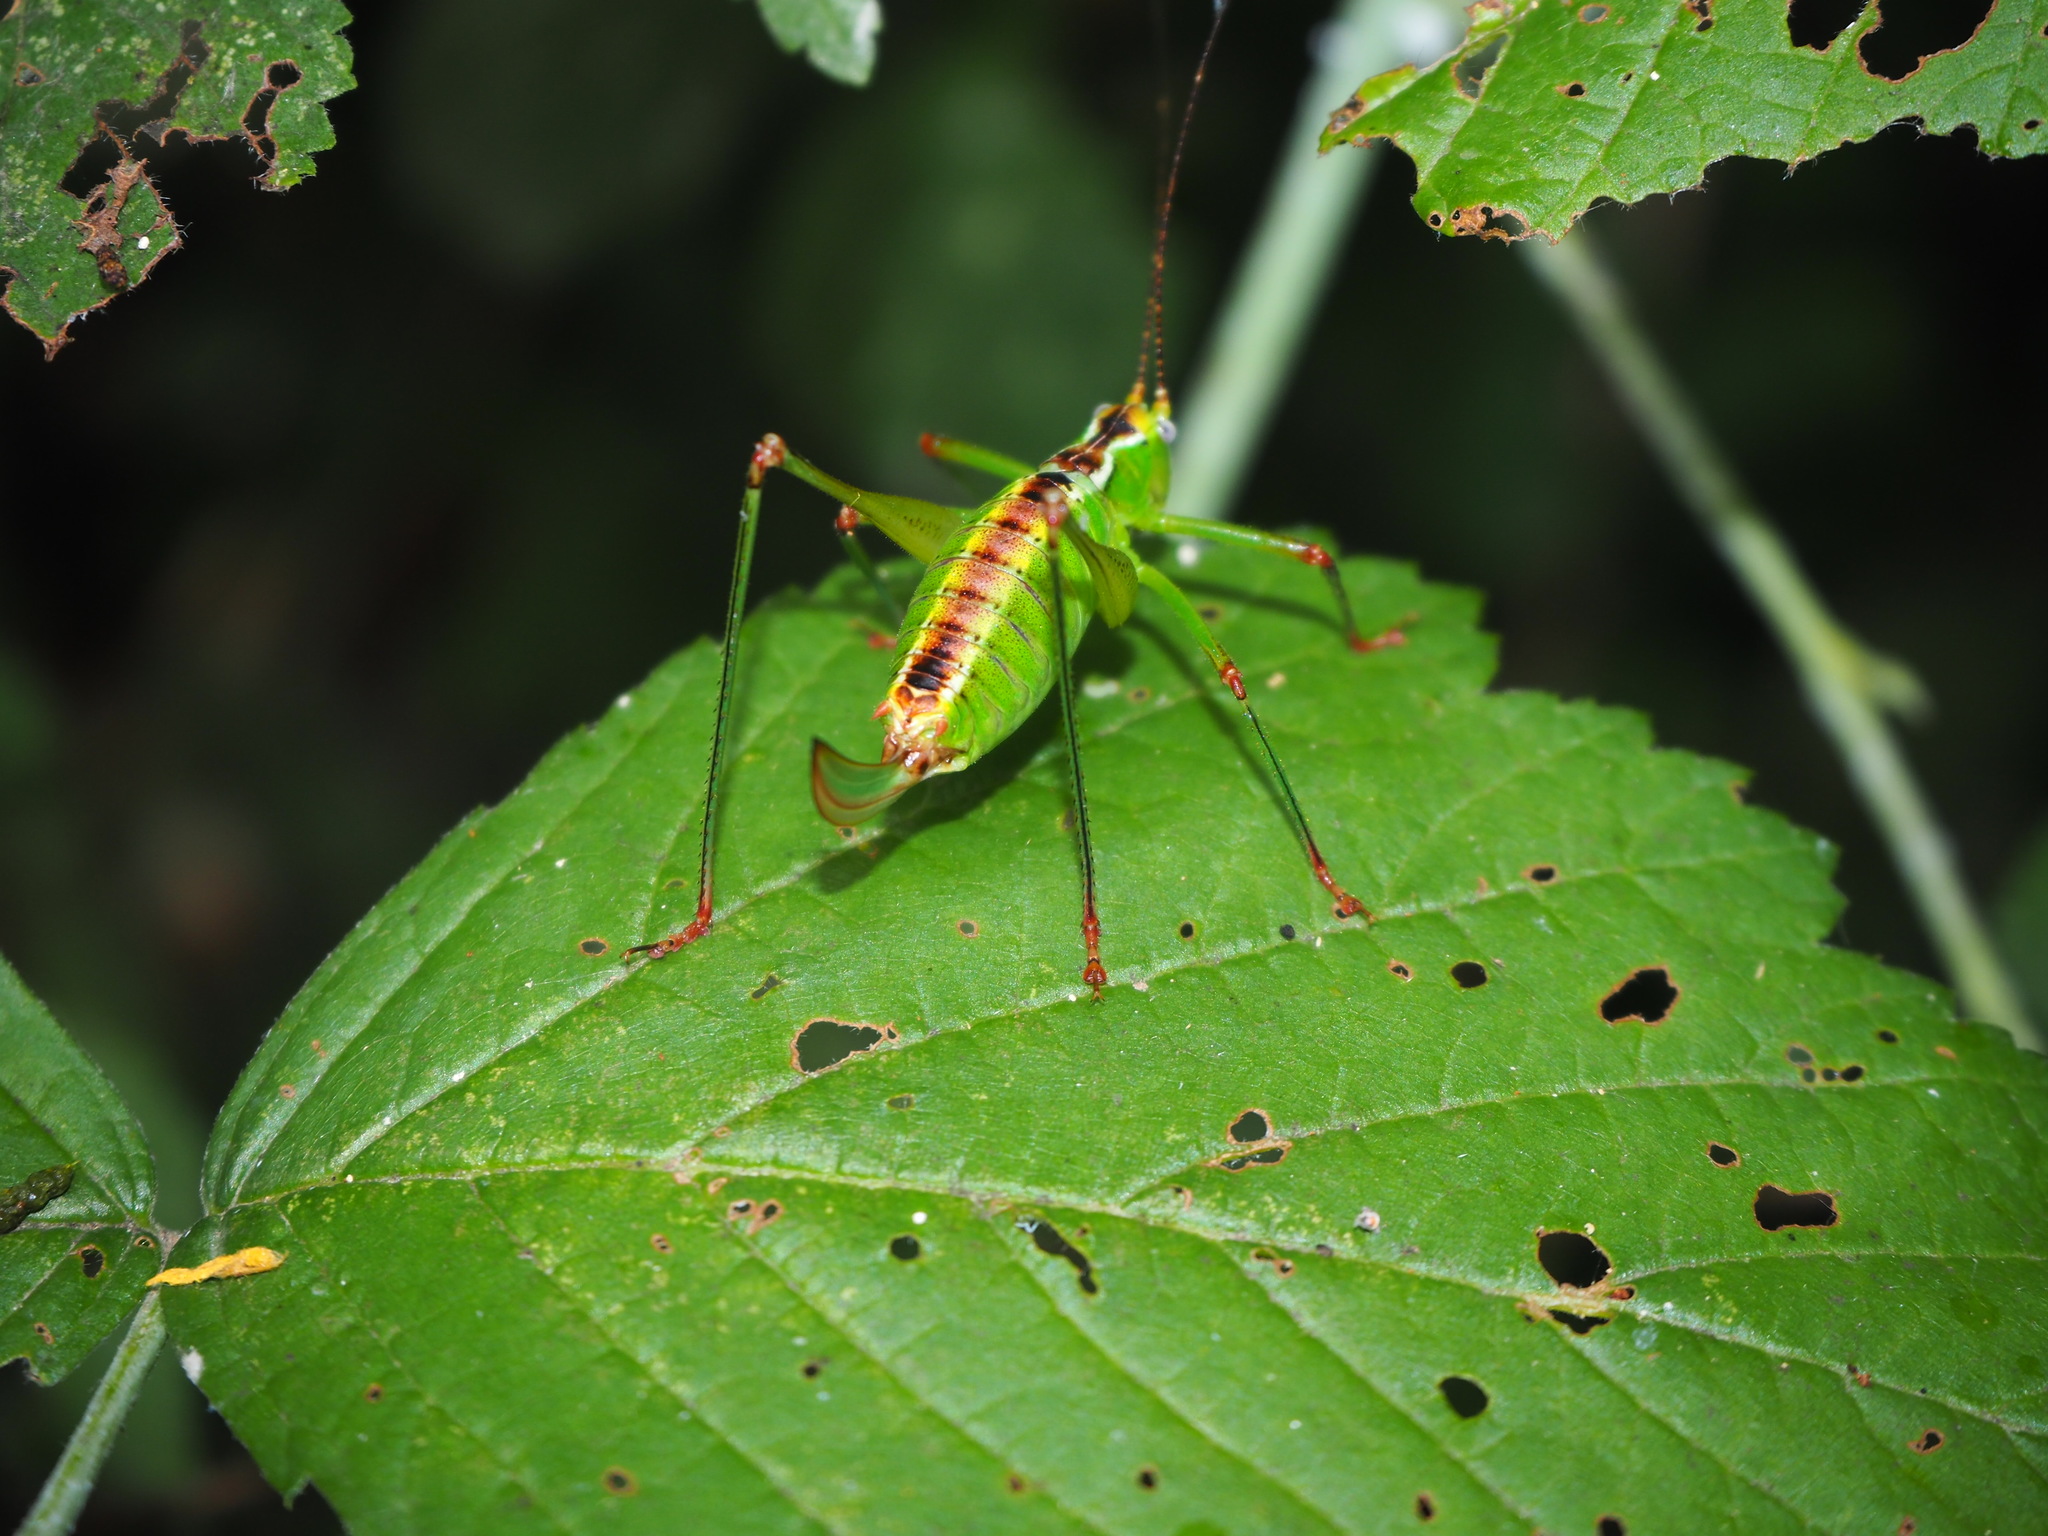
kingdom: Animalia
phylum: Arthropoda
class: Insecta
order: Orthoptera
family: Tettigoniidae
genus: Andreiniimon
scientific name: Andreiniimon nuptialis
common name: Splendid bush-cricket
